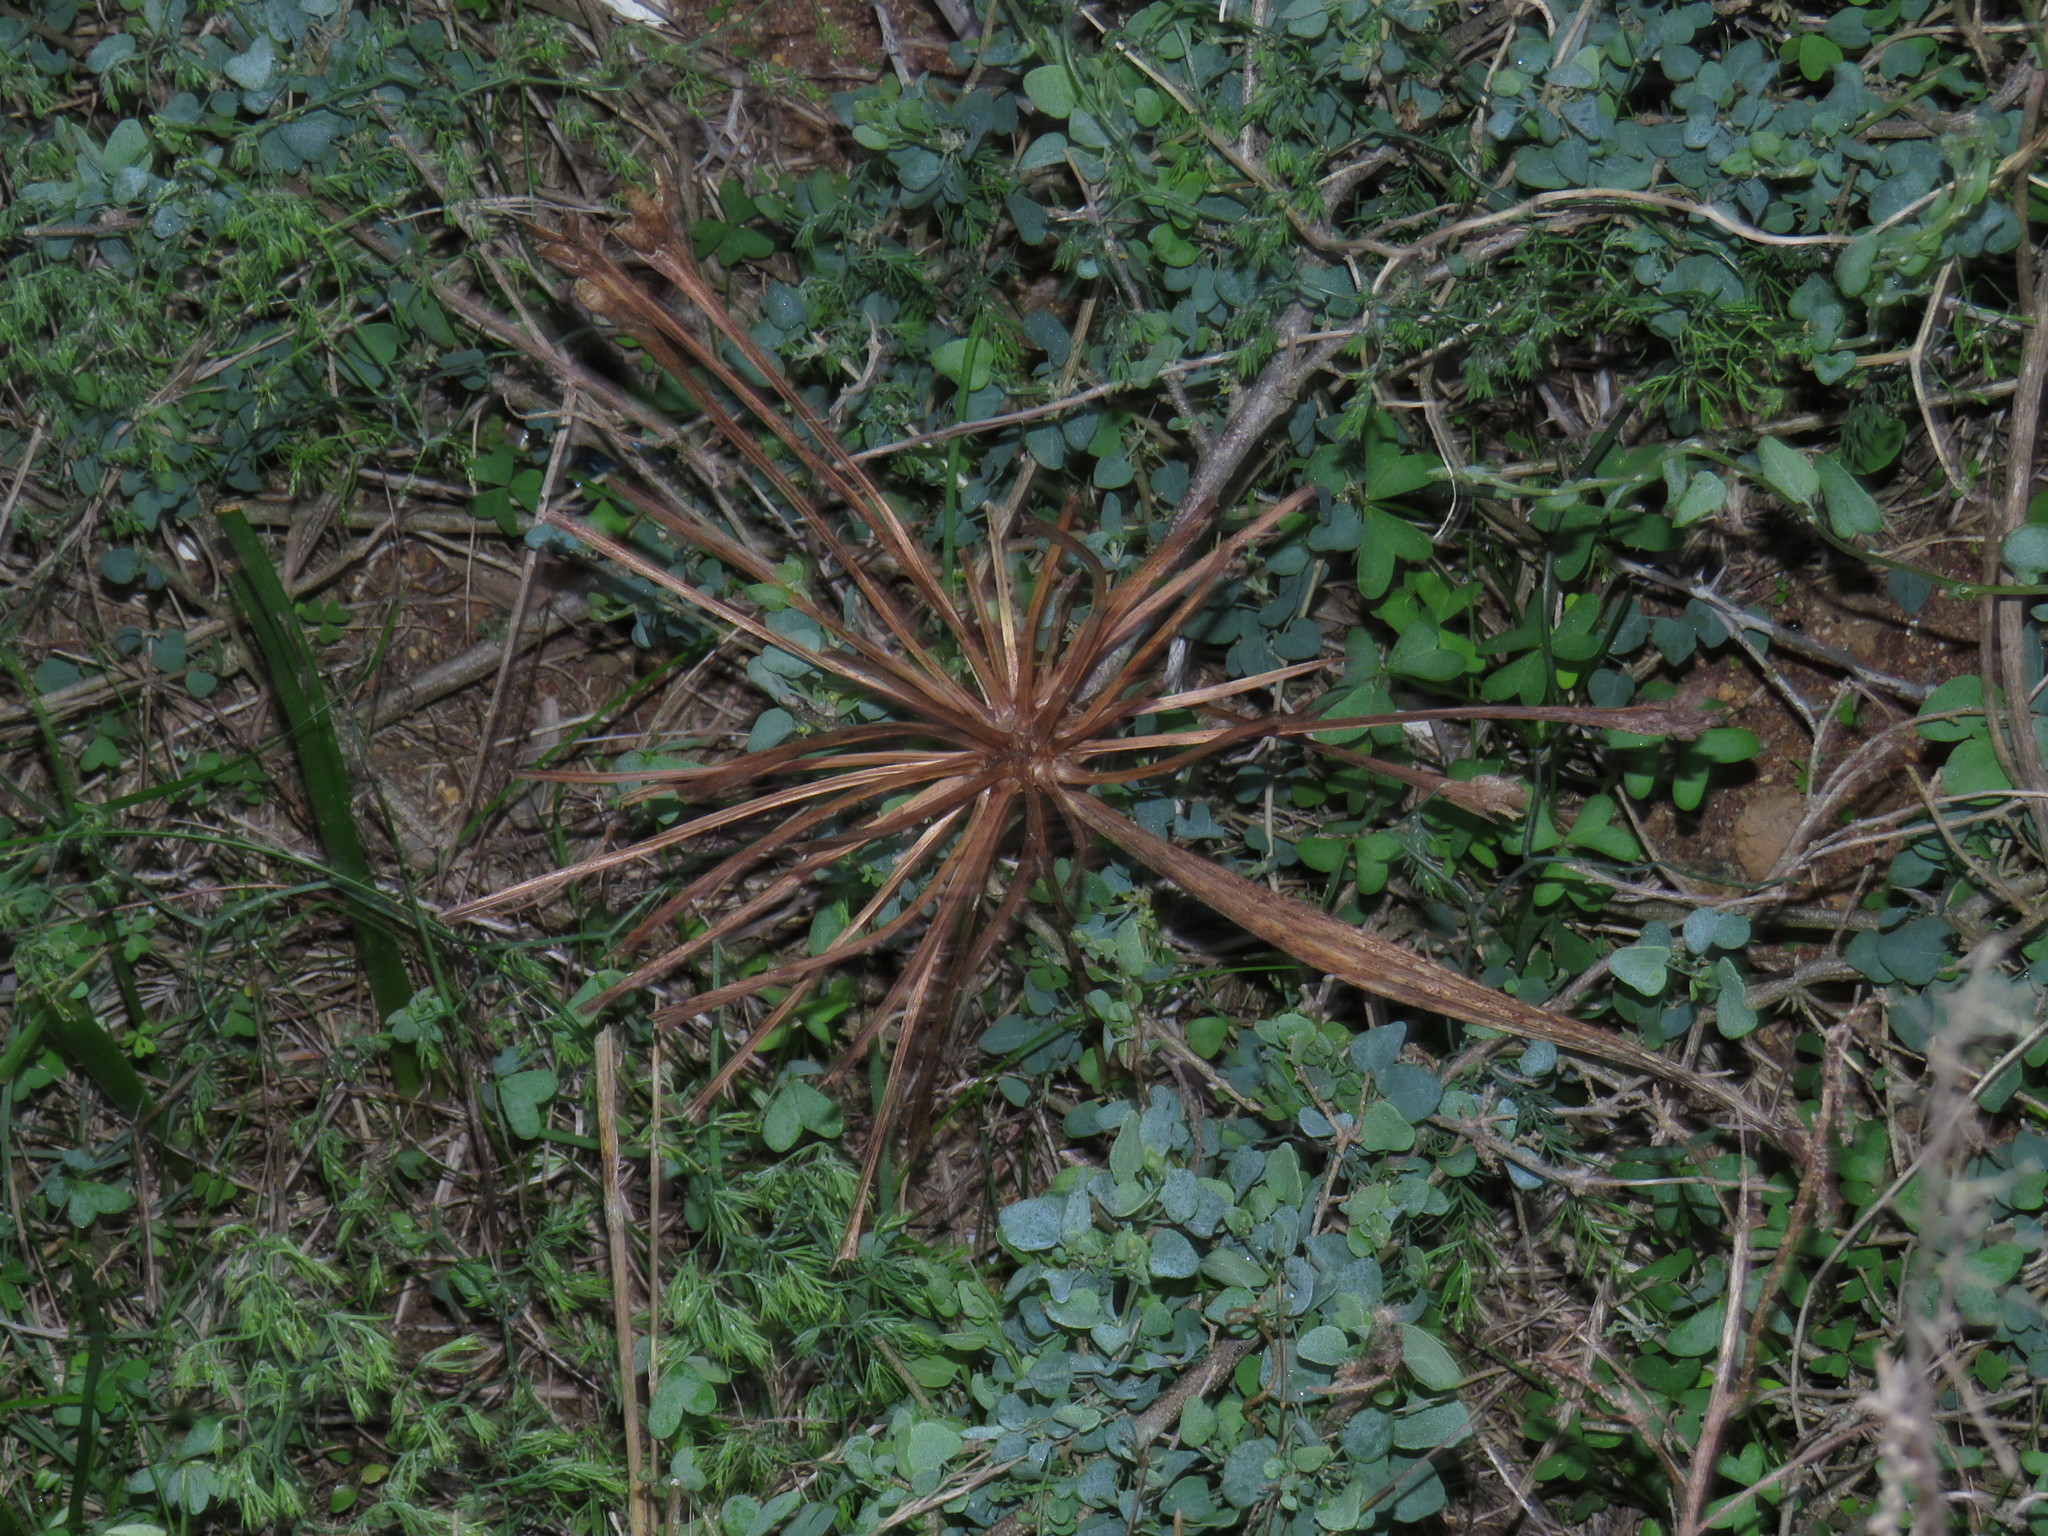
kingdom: Plantae
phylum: Tracheophyta
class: Liliopsida
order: Asparagales
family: Amaryllidaceae
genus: Crossyne
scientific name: Crossyne guttata
